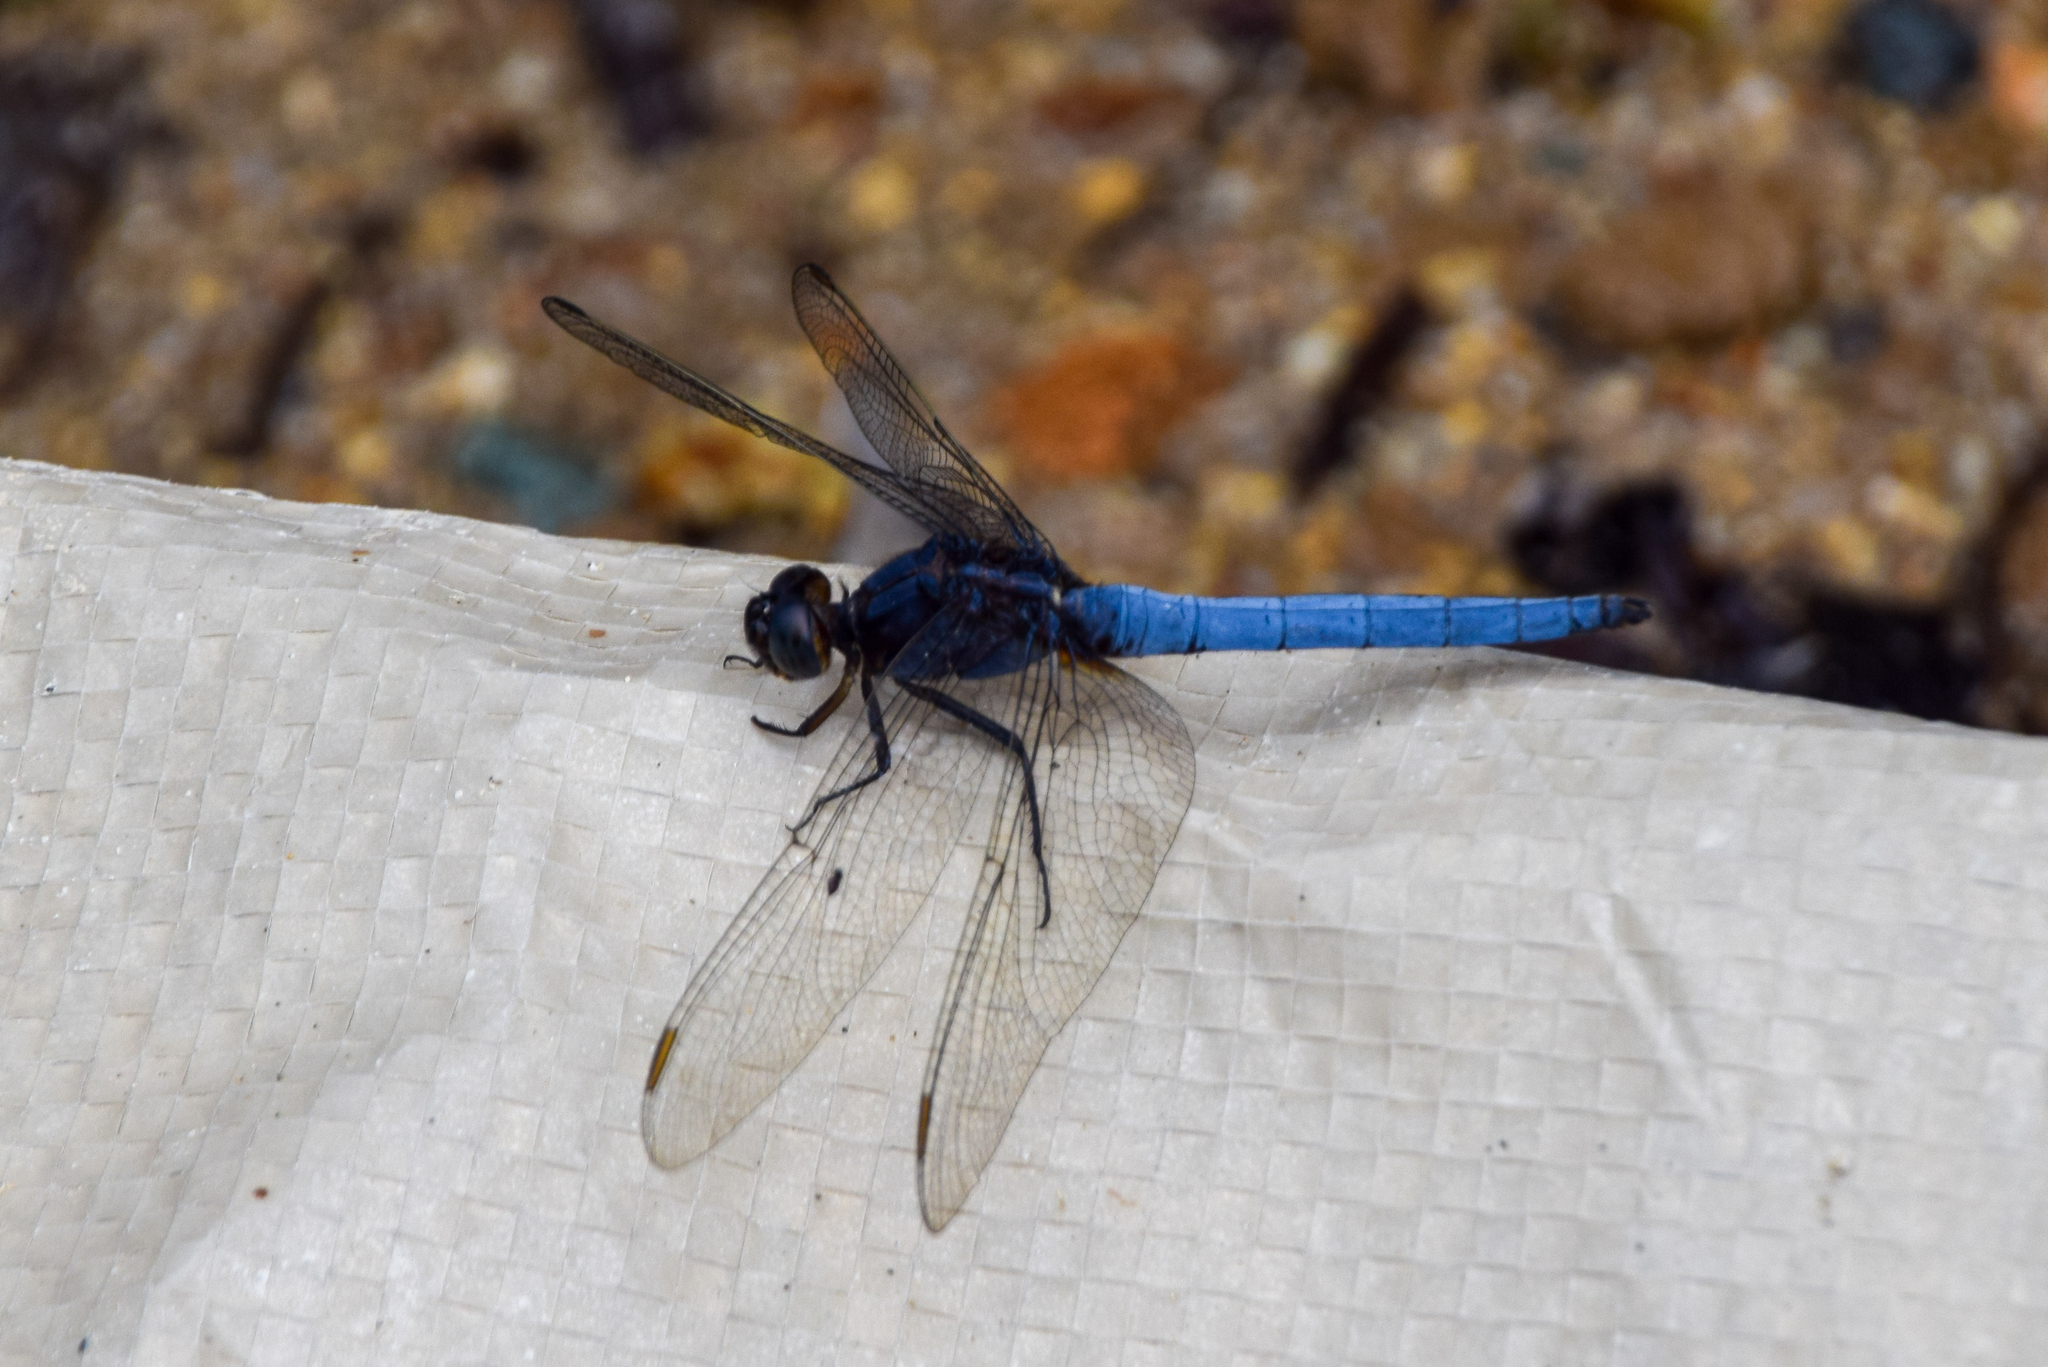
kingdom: Animalia
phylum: Arthropoda
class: Insecta
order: Odonata
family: Libellulidae
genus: Orthetrum
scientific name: Orthetrum glaucum
